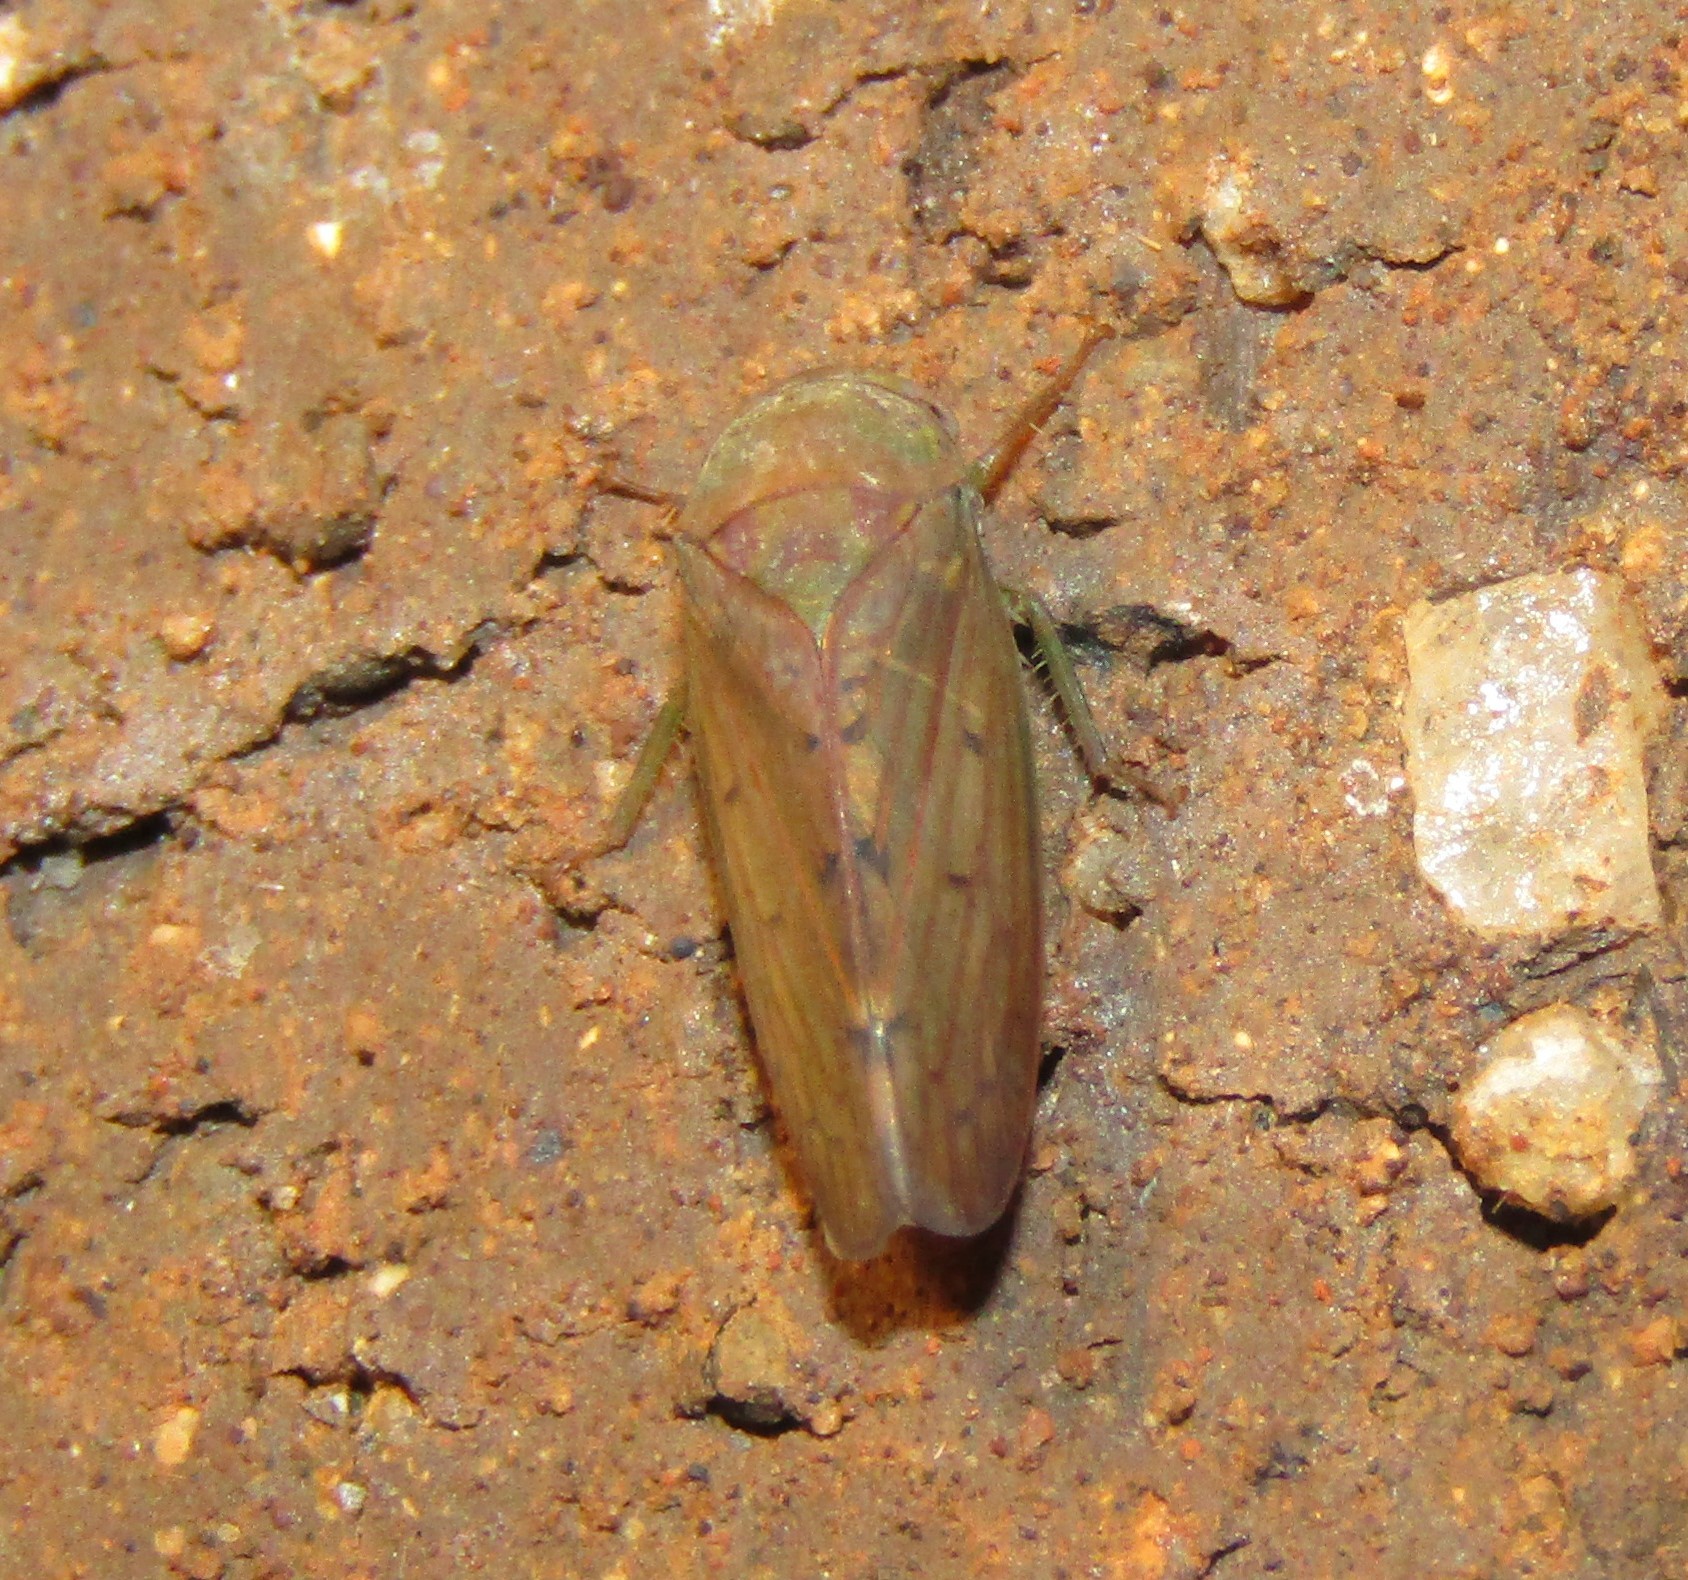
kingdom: Animalia
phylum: Arthropoda
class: Insecta
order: Hemiptera
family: Cicadellidae
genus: Polana
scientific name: Polana quadrinotata
